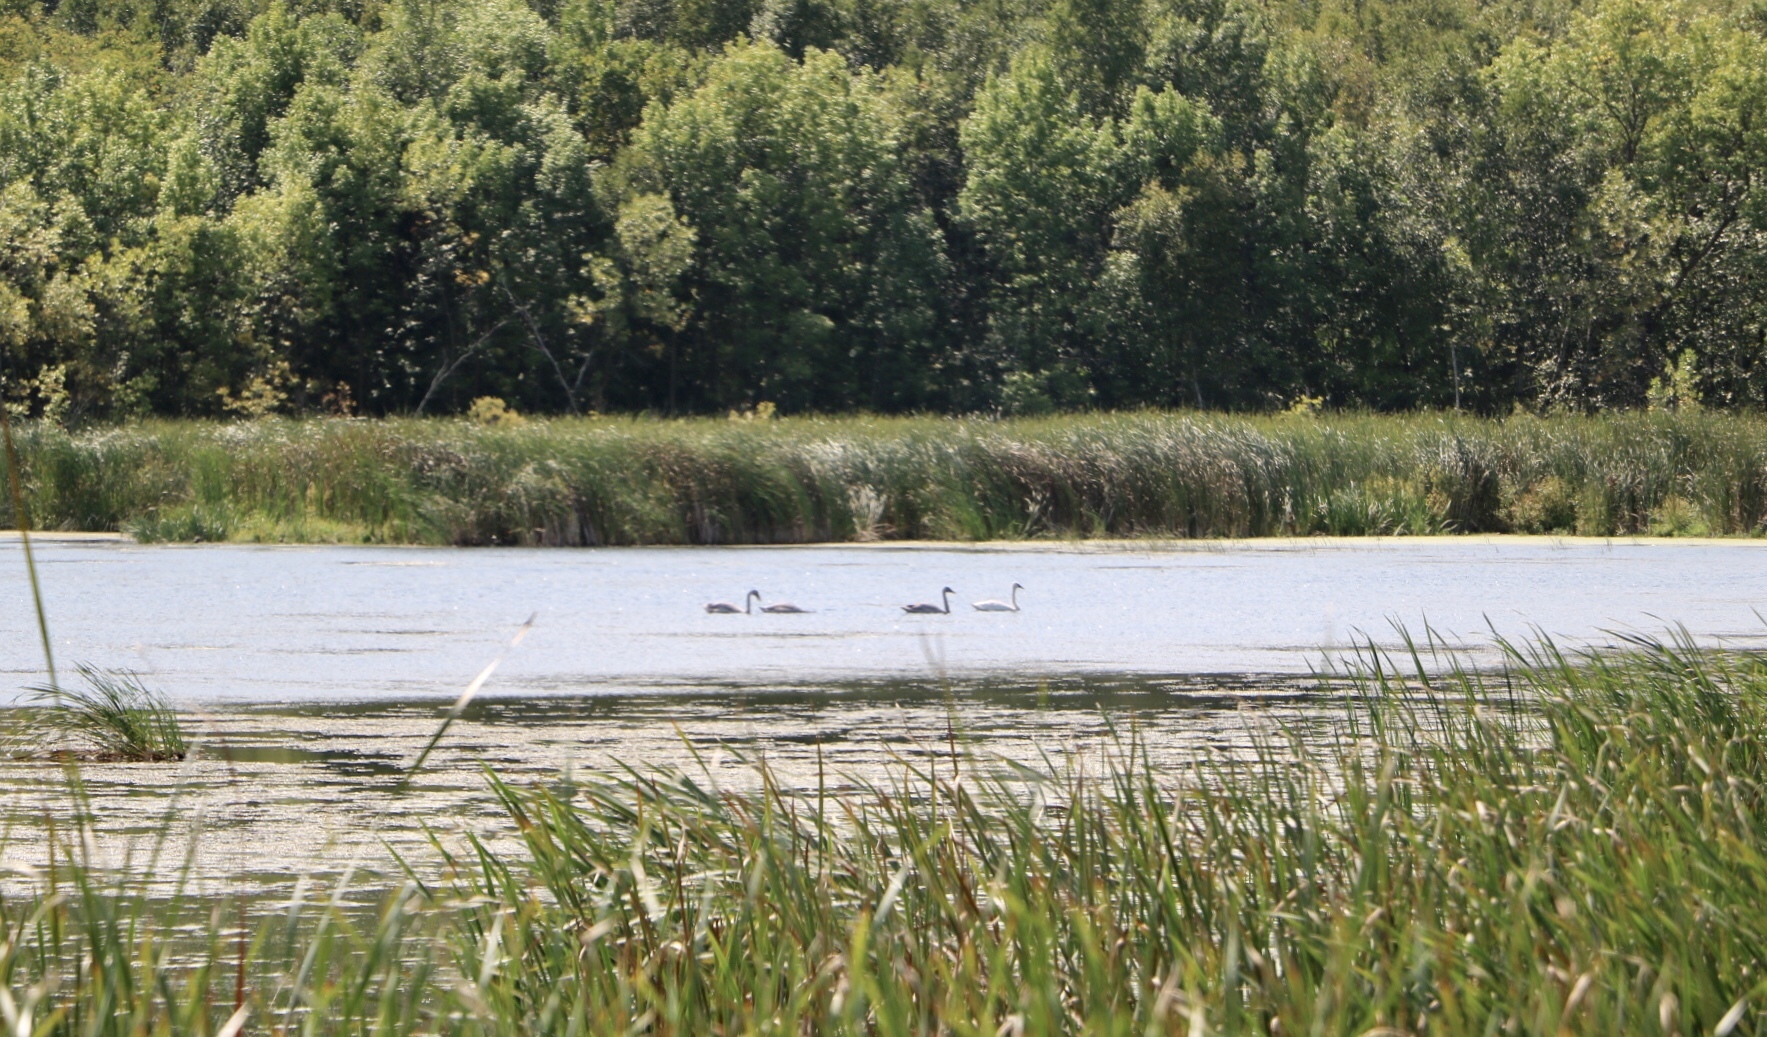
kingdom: Animalia
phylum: Chordata
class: Aves
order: Anseriformes
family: Anatidae
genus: Cygnus
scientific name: Cygnus buccinator
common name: Trumpeter swan
